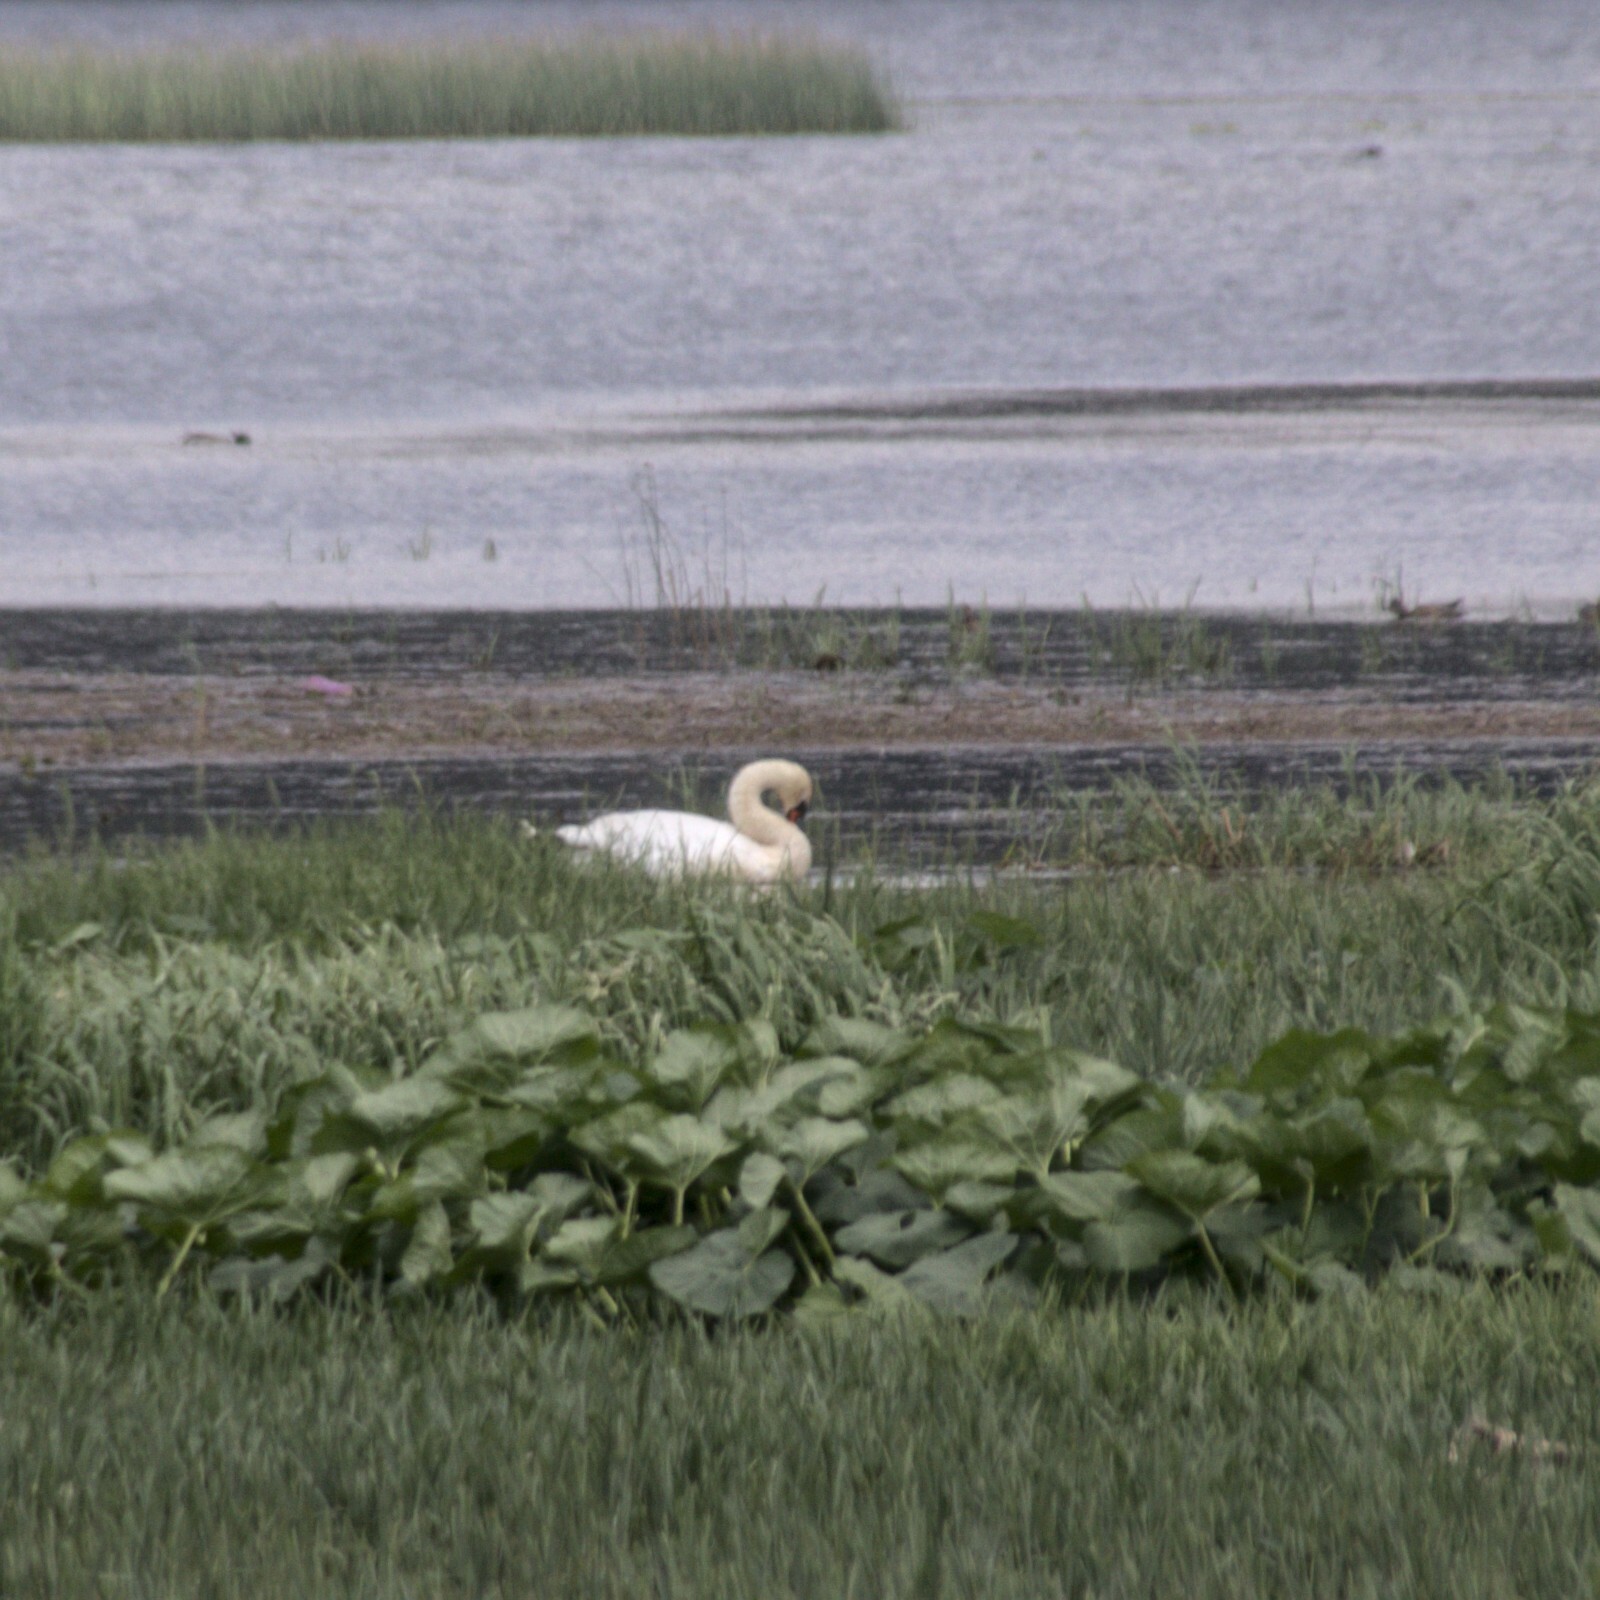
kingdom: Animalia
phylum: Chordata
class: Aves
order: Anseriformes
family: Anatidae
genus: Cygnus
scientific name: Cygnus olor
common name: Mute swan
